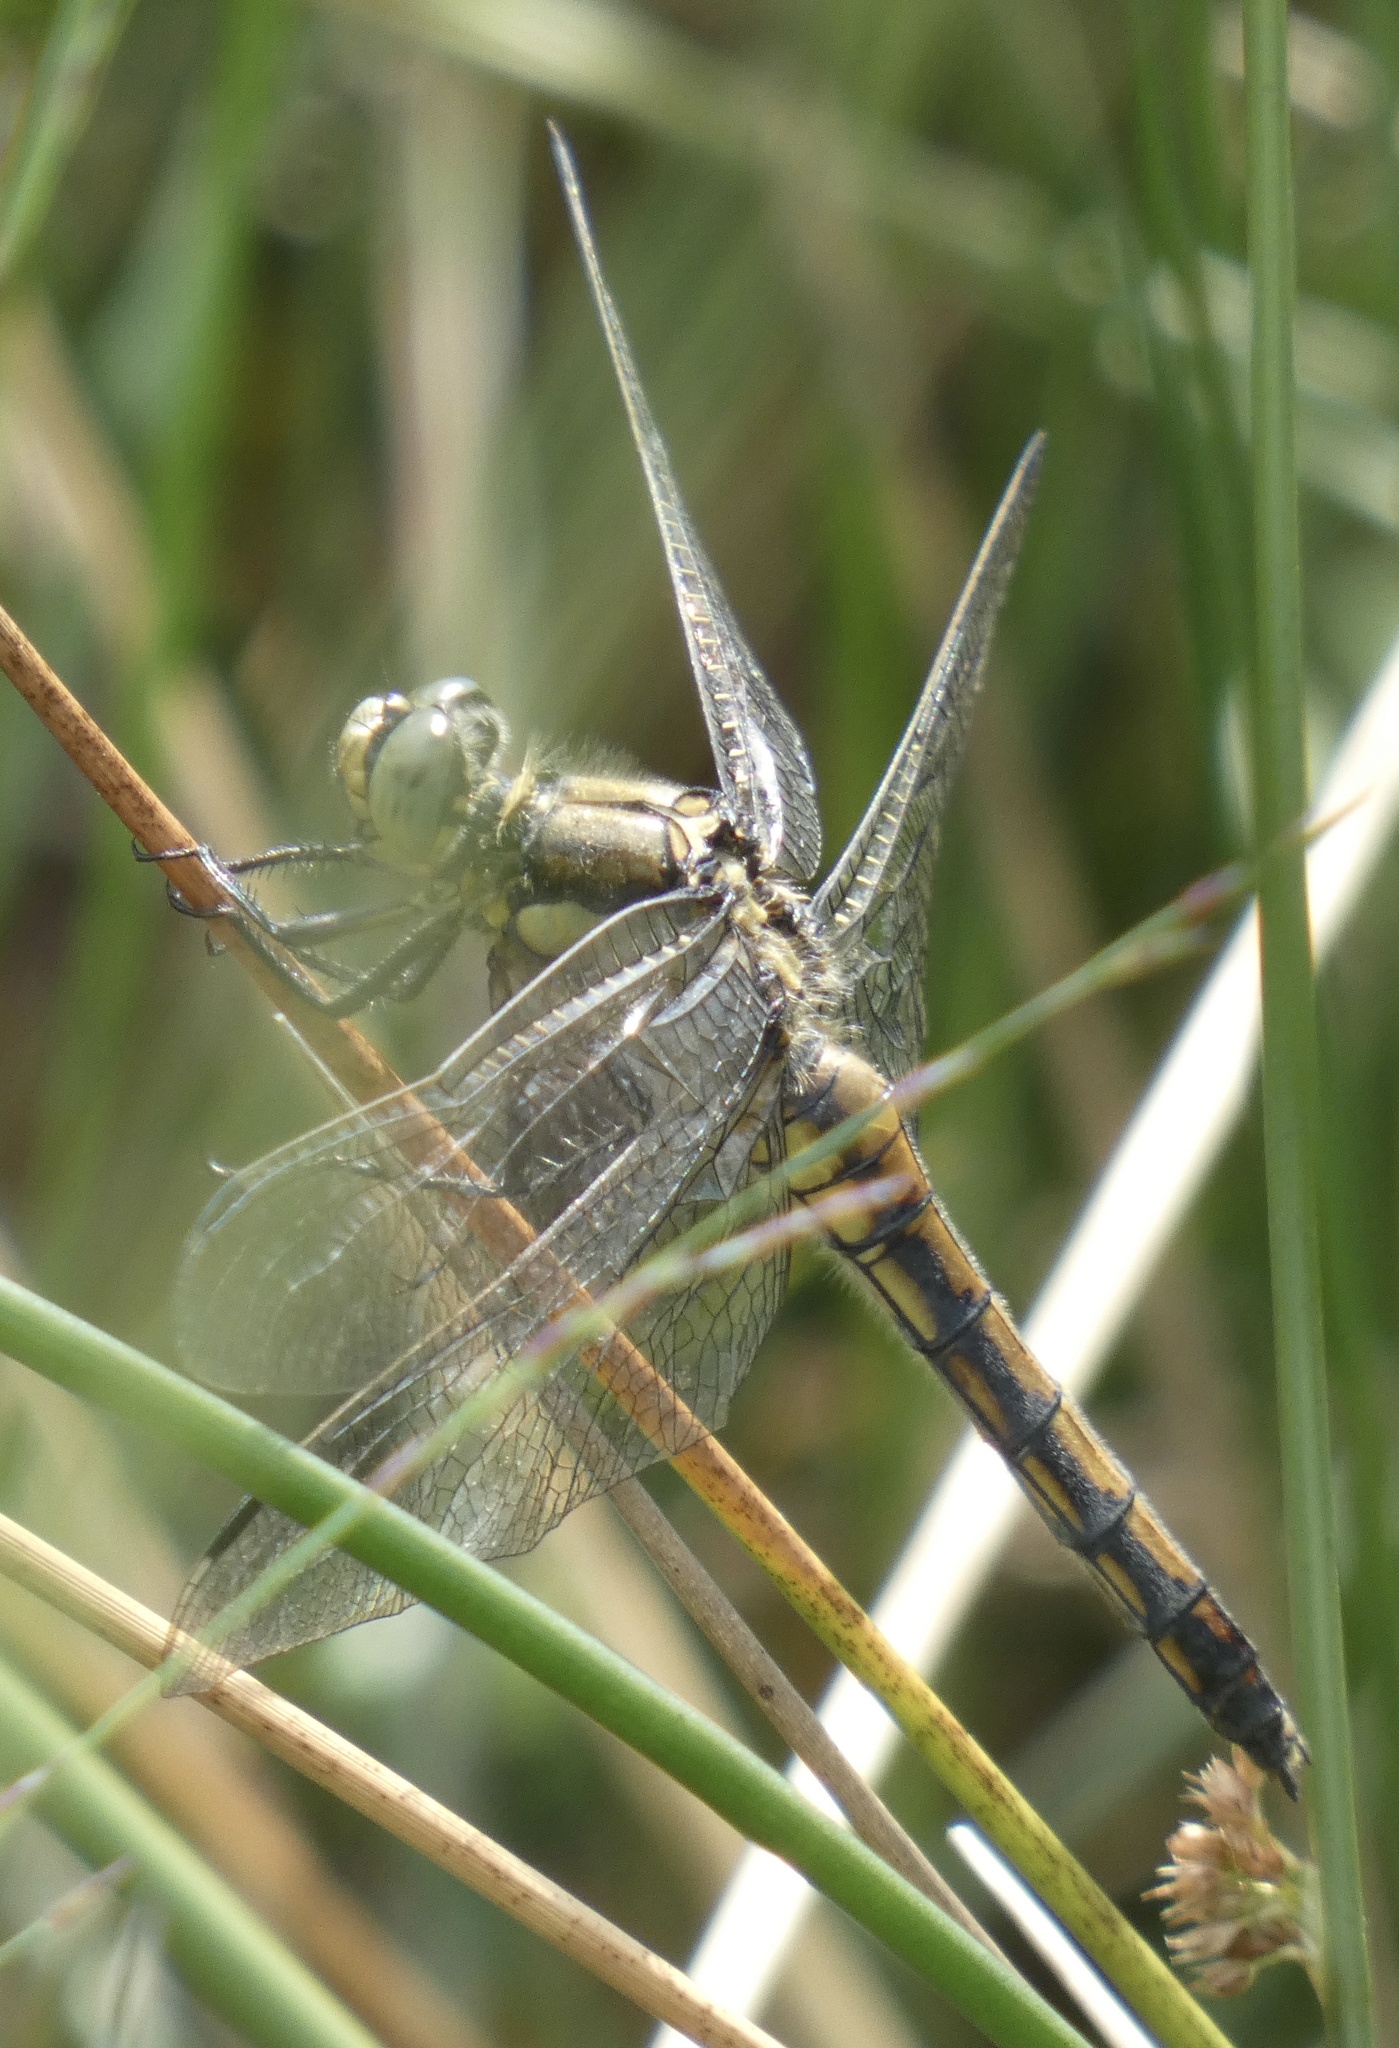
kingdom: Animalia
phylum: Arthropoda
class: Insecta
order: Odonata
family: Libellulidae
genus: Orthetrum
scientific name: Orthetrum cancellatum
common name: Black-tailed skimmer
